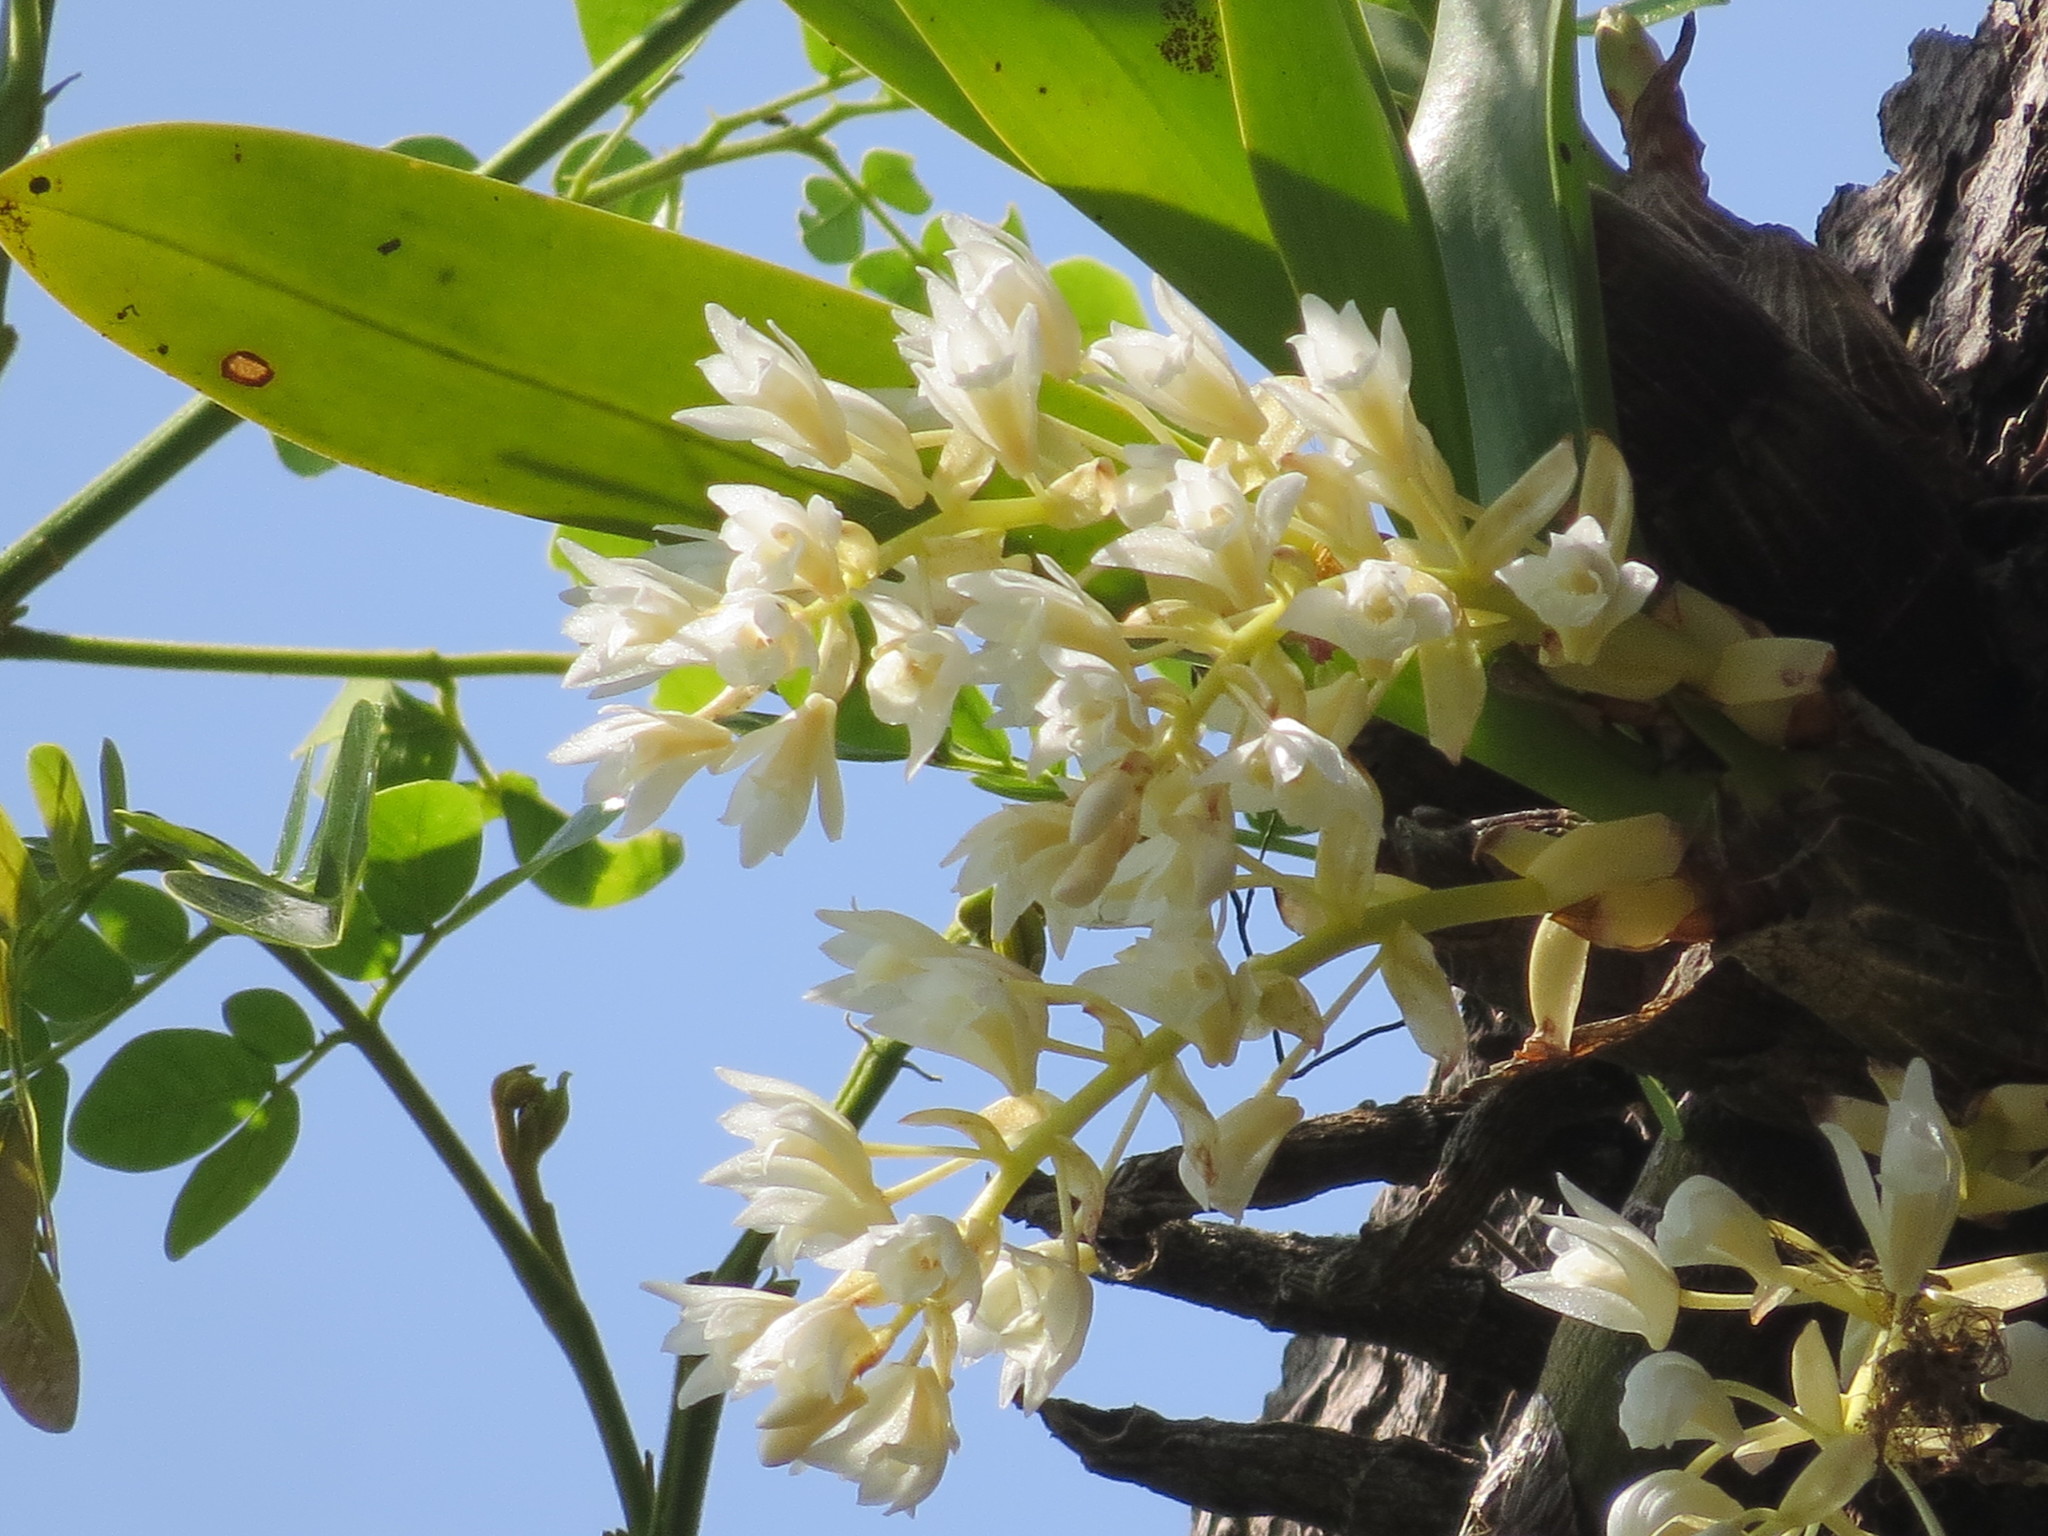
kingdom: Plantae
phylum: Tracheophyta
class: Liliopsida
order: Asparagales
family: Orchidaceae
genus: Pinalia
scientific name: Pinalia bractescens
